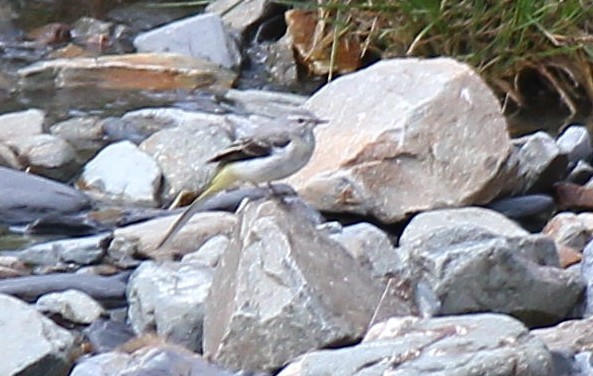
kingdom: Animalia
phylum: Chordata
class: Aves
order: Passeriformes
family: Motacillidae
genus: Motacilla
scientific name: Motacilla cinerea
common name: Grey wagtail
